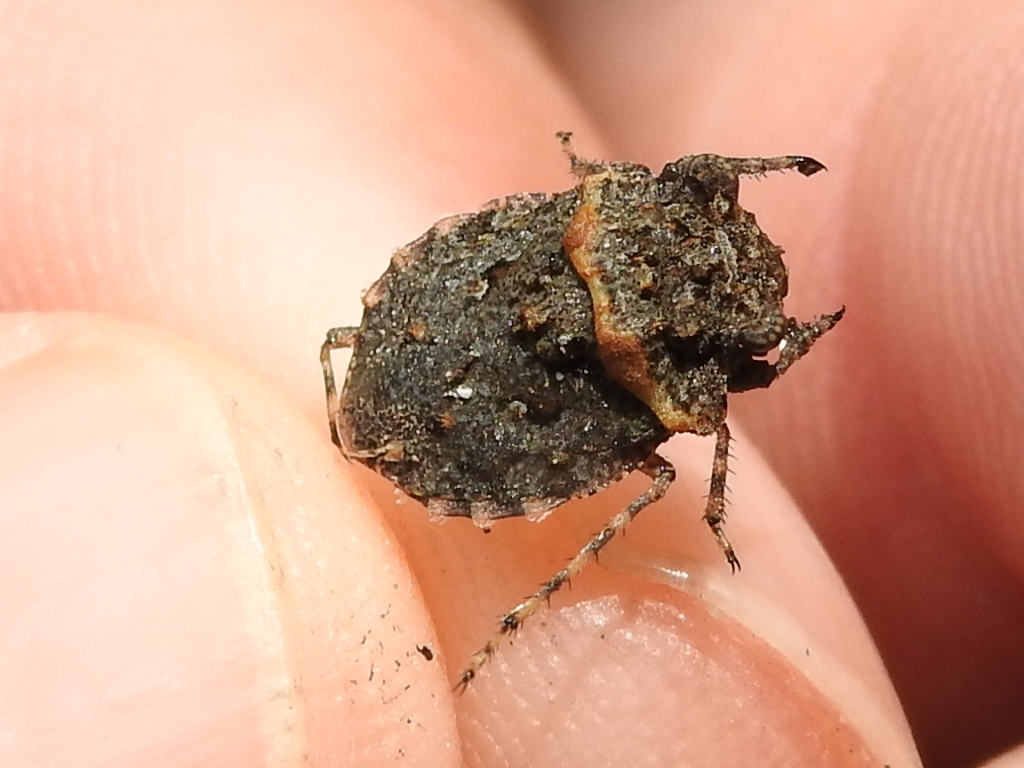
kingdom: Animalia
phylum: Arthropoda
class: Insecta
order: Hemiptera
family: Gelastocoridae
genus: Gelastocoris
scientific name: Gelastocoris oculatus
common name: Toad bug
